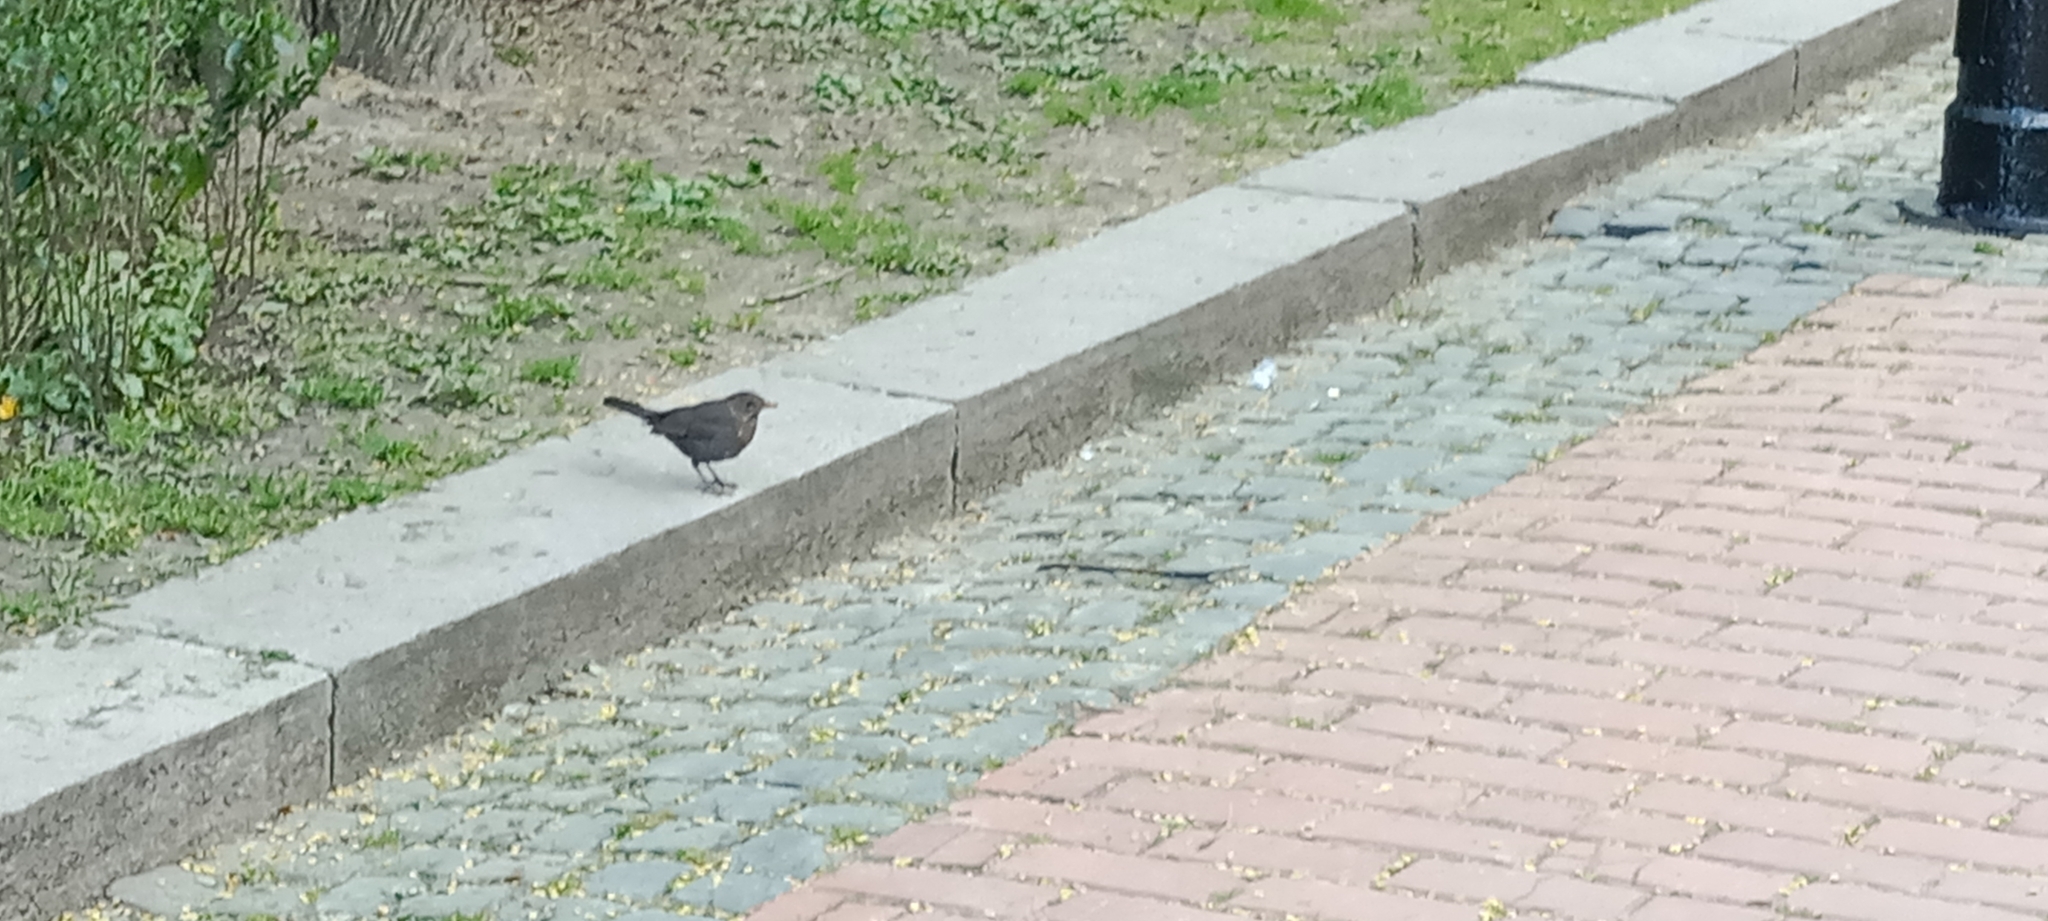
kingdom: Animalia
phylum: Chordata
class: Aves
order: Passeriformes
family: Turdidae
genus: Turdus
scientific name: Turdus merula
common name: Common blackbird
